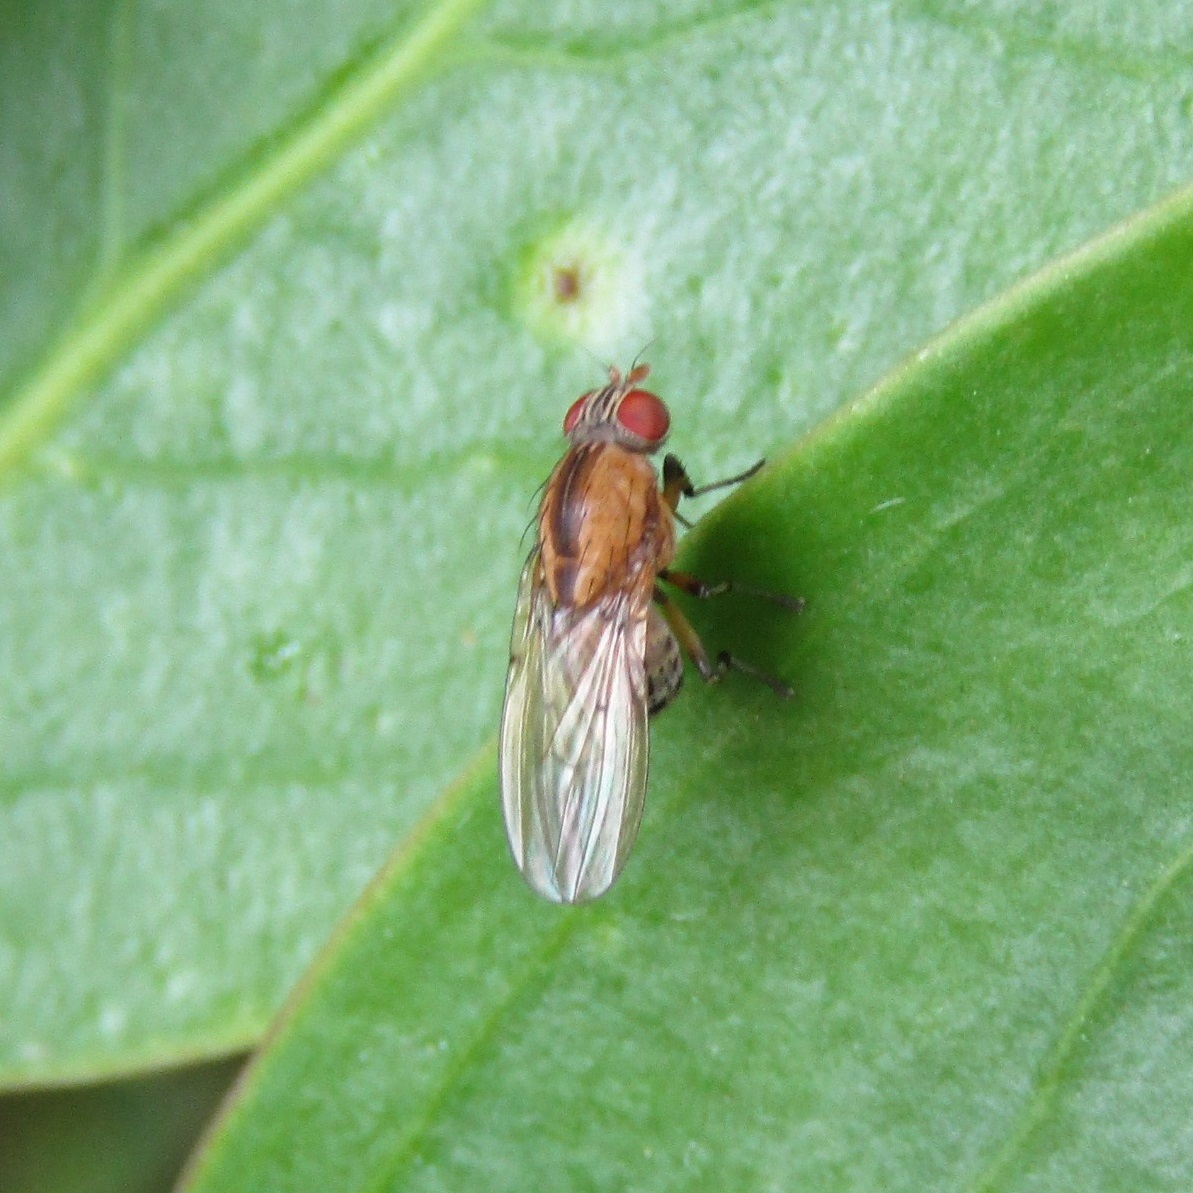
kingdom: Animalia
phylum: Arthropoda
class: Insecta
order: Diptera
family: Lauxaniidae
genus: Sapromyza
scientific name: Sapromyza neozelandica
